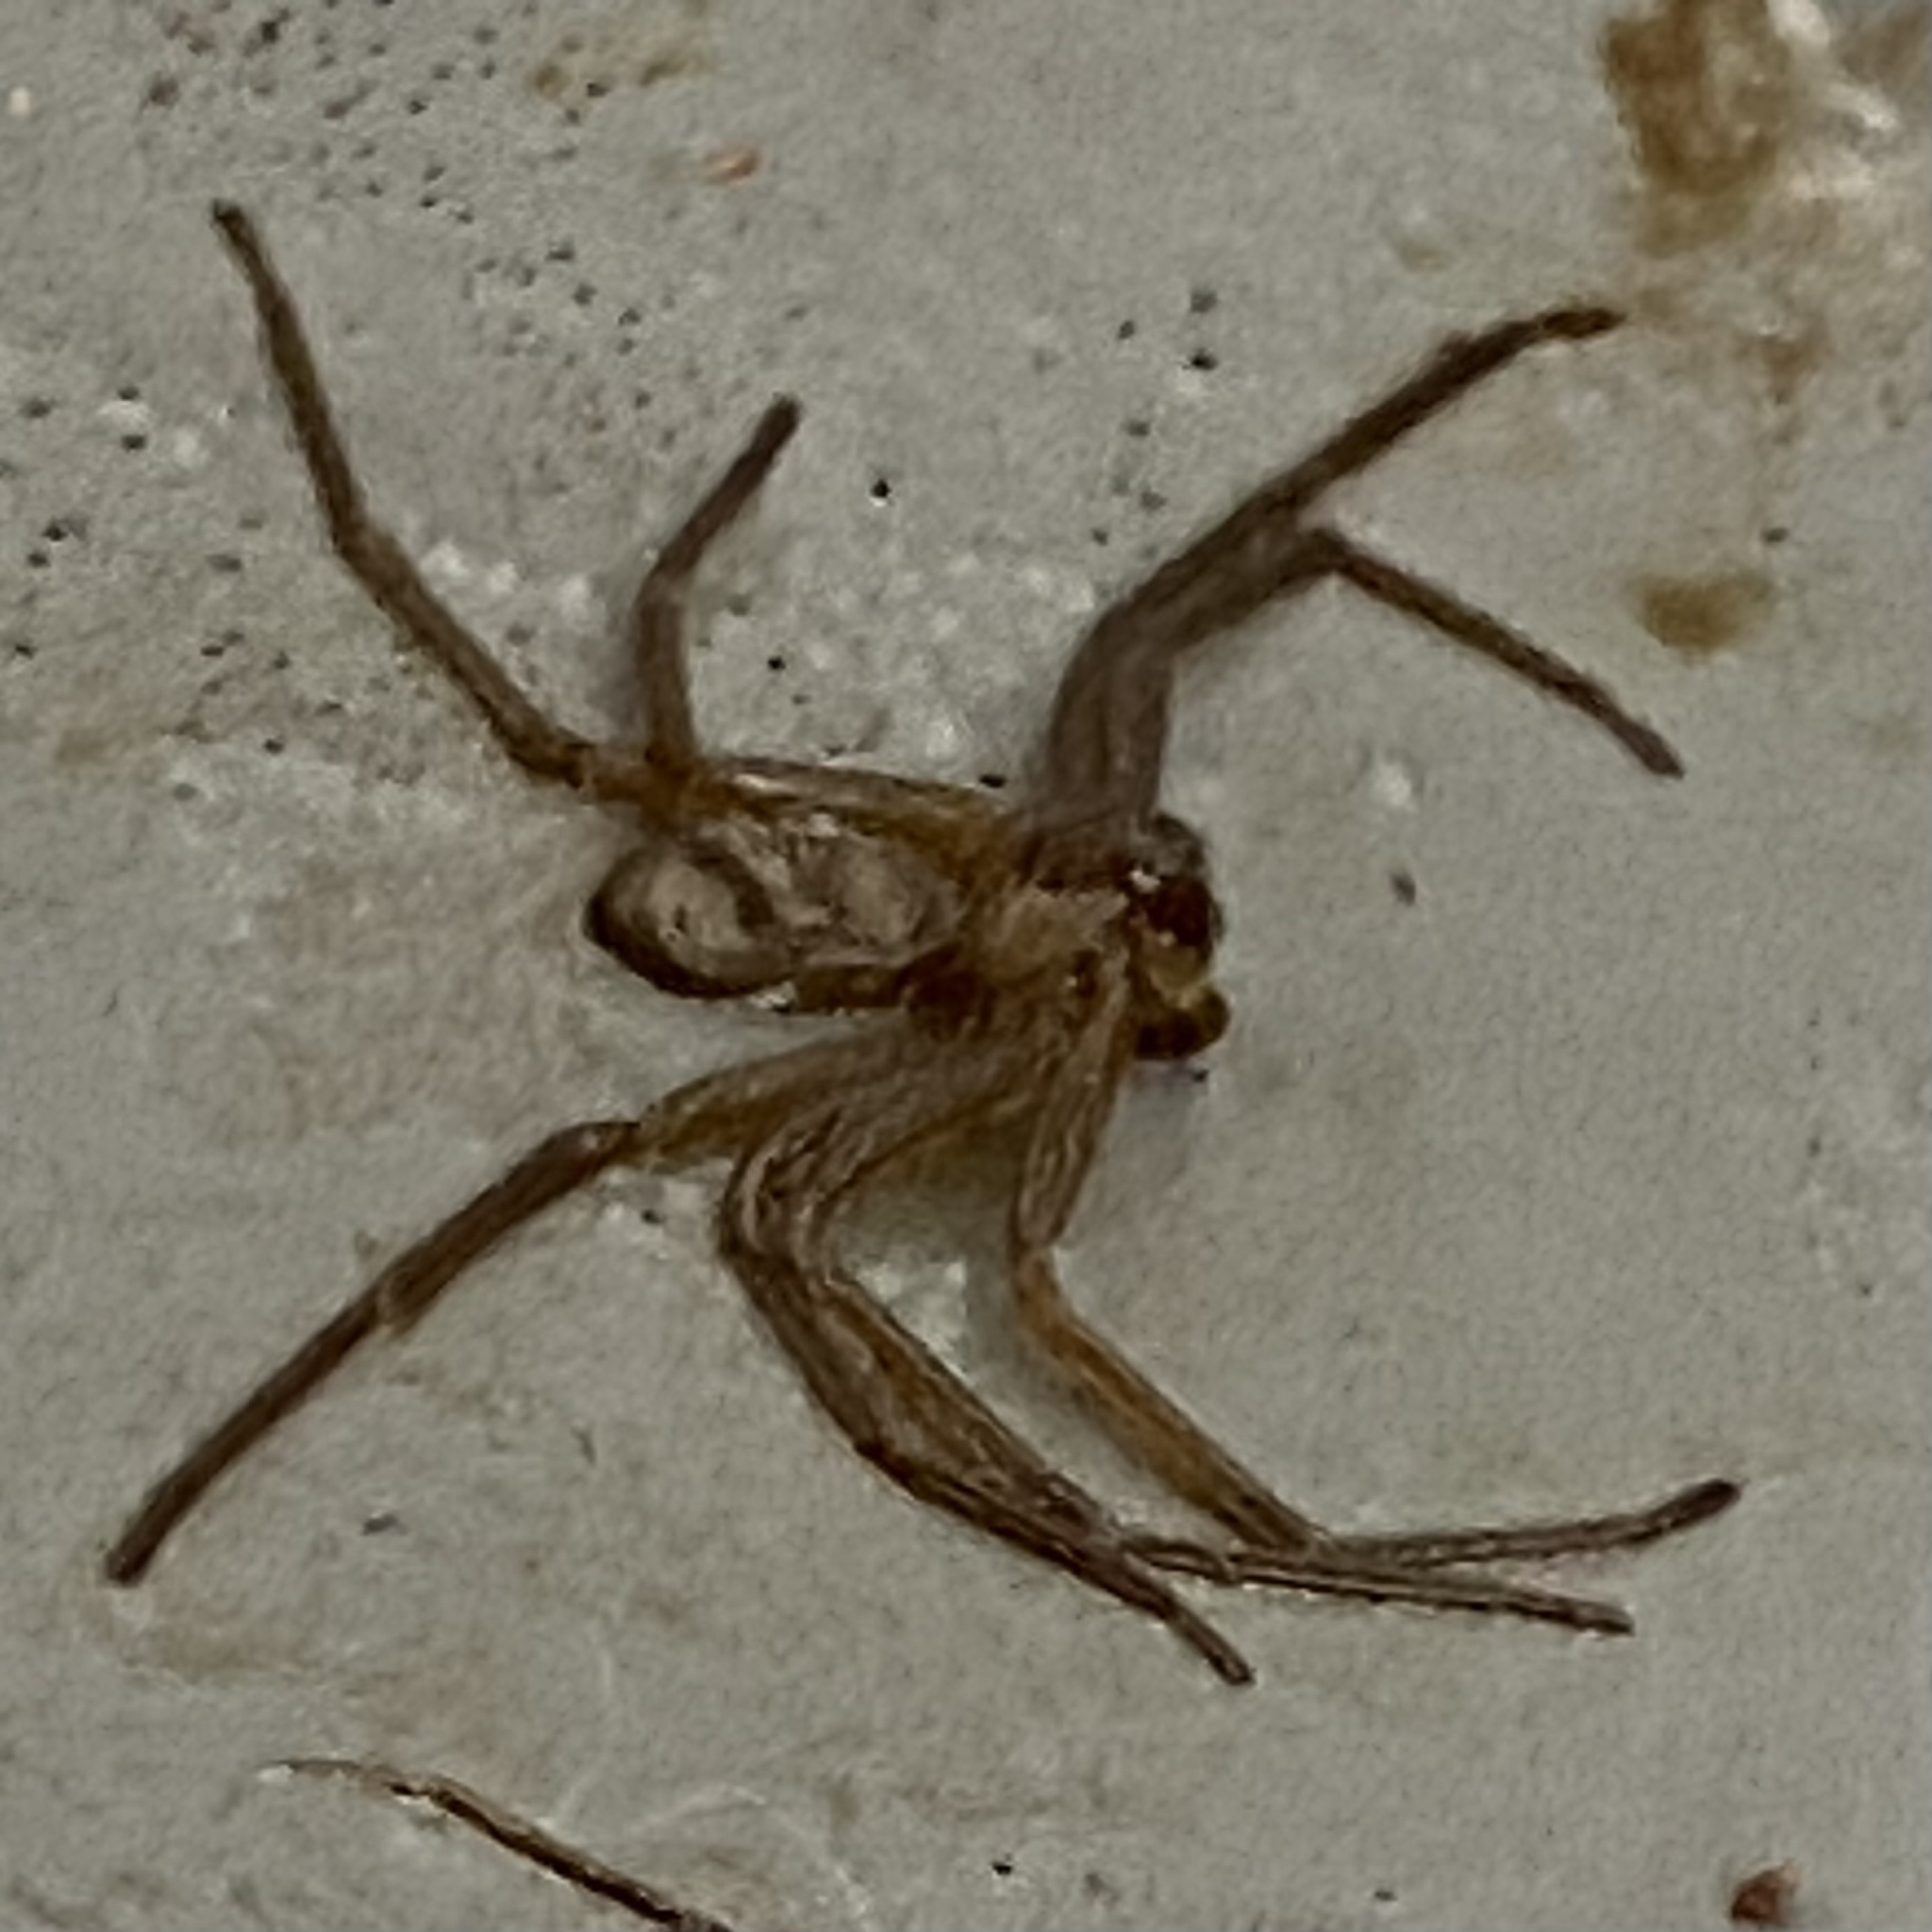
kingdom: Animalia
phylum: Arthropoda
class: Arachnida
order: Araneae
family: Sicariidae
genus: Loxosceles
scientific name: Loxosceles reclusa
